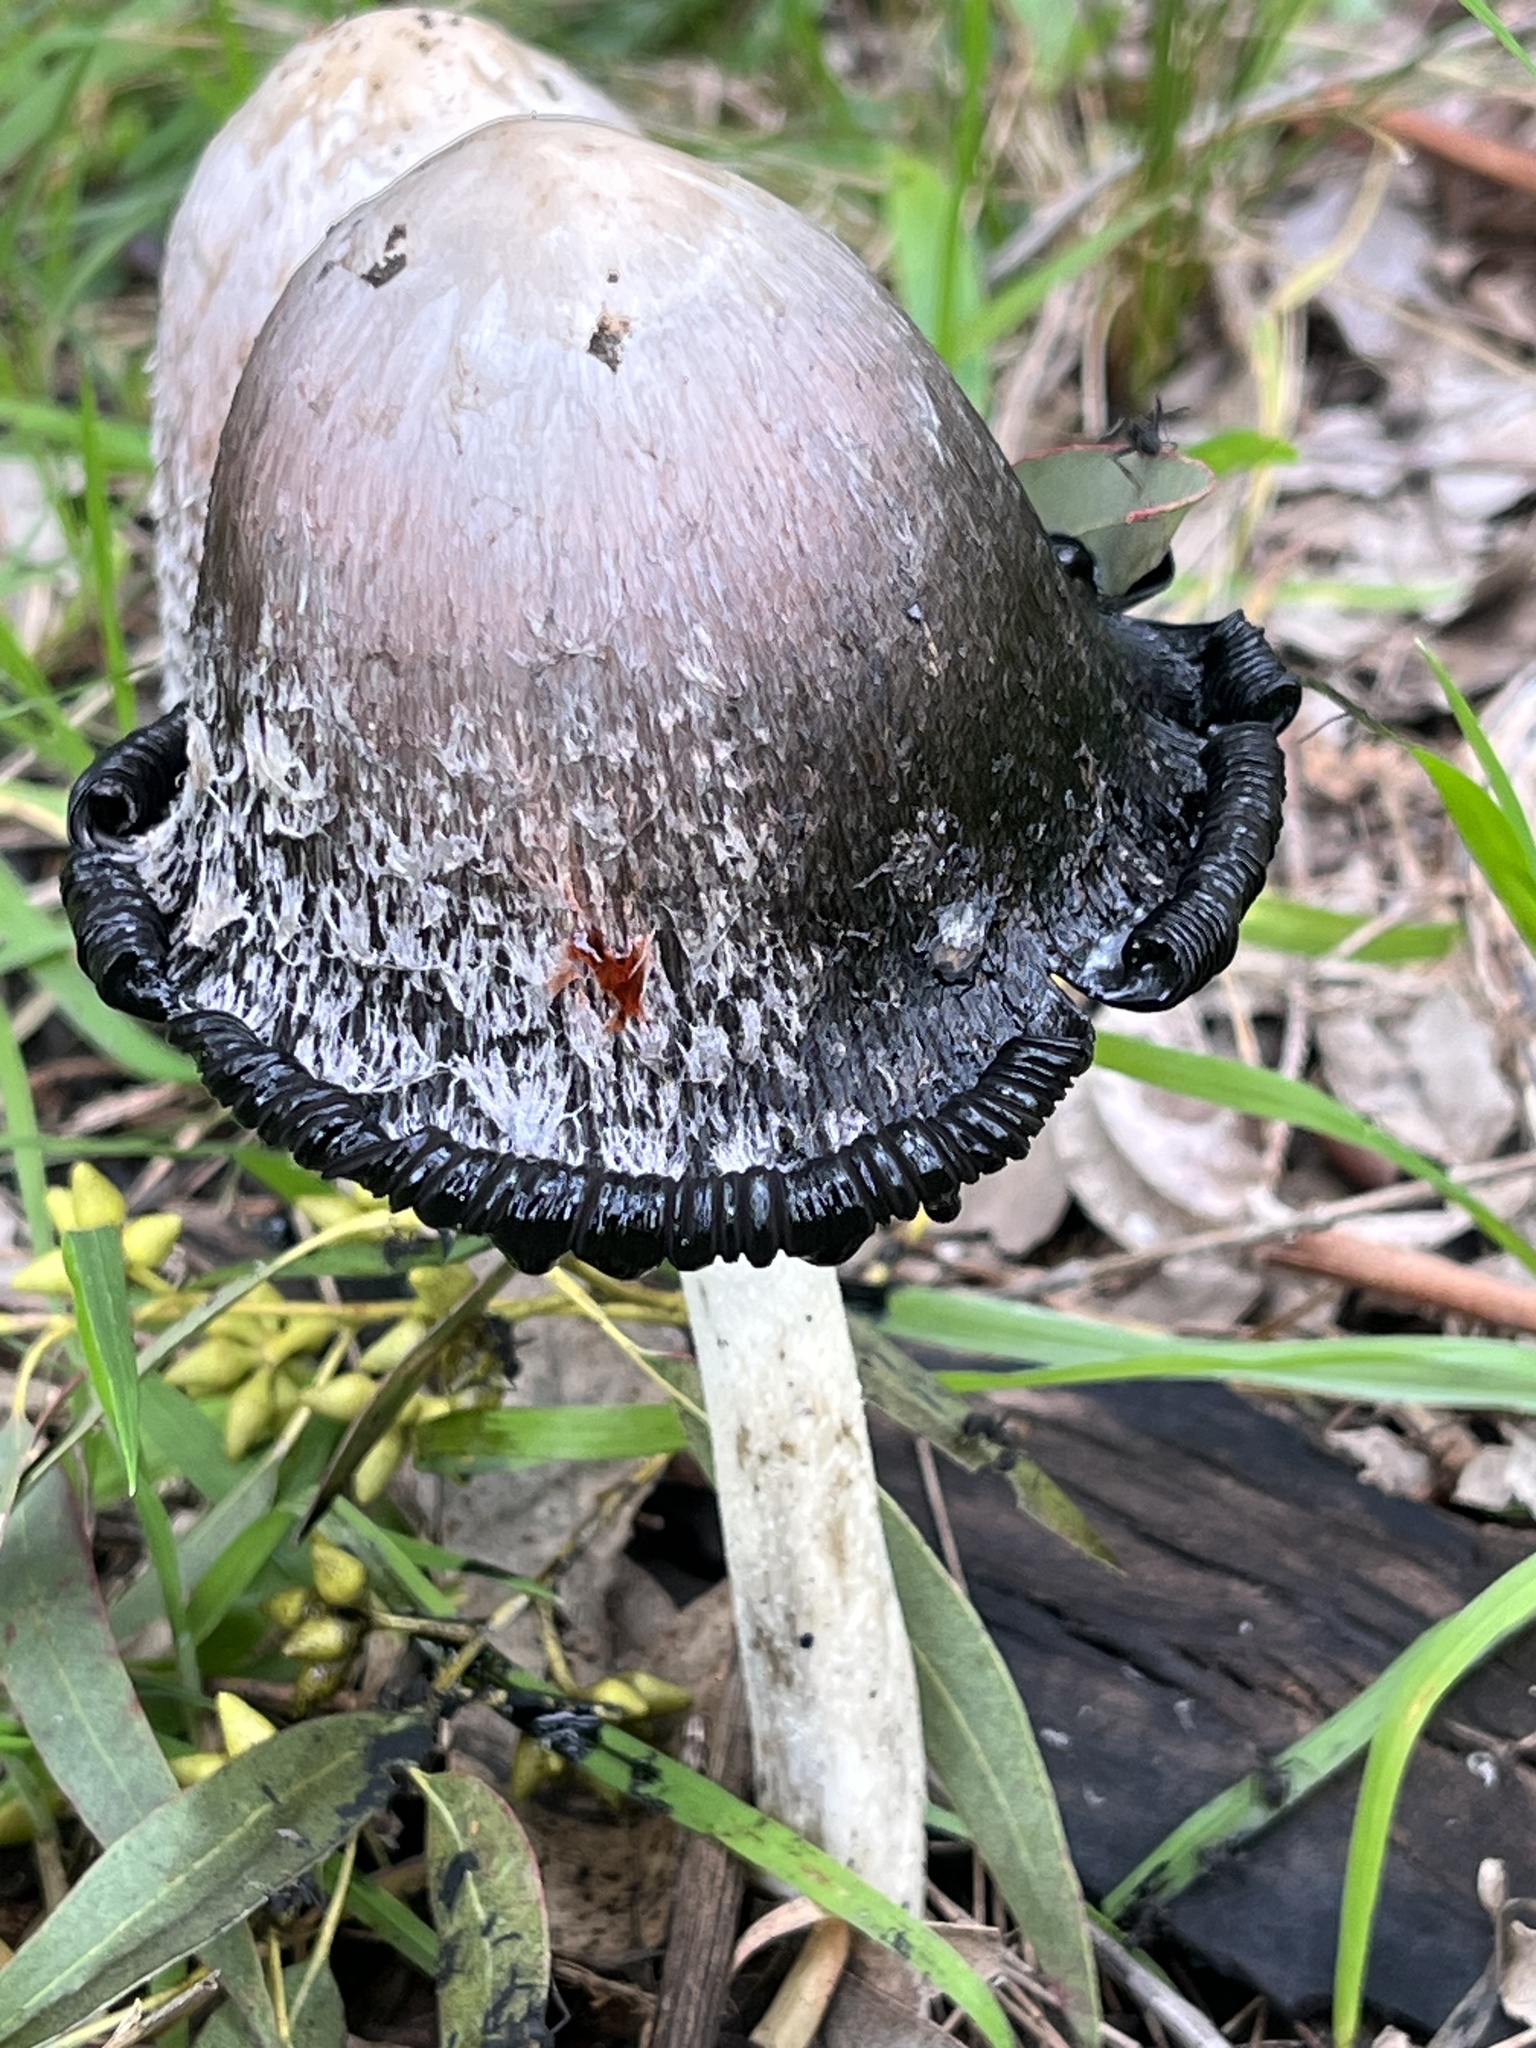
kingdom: Fungi
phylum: Basidiomycota
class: Agaricomycetes
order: Agaricales
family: Agaricaceae
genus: Coprinus
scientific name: Coprinus comatus
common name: Lawyer's wig
